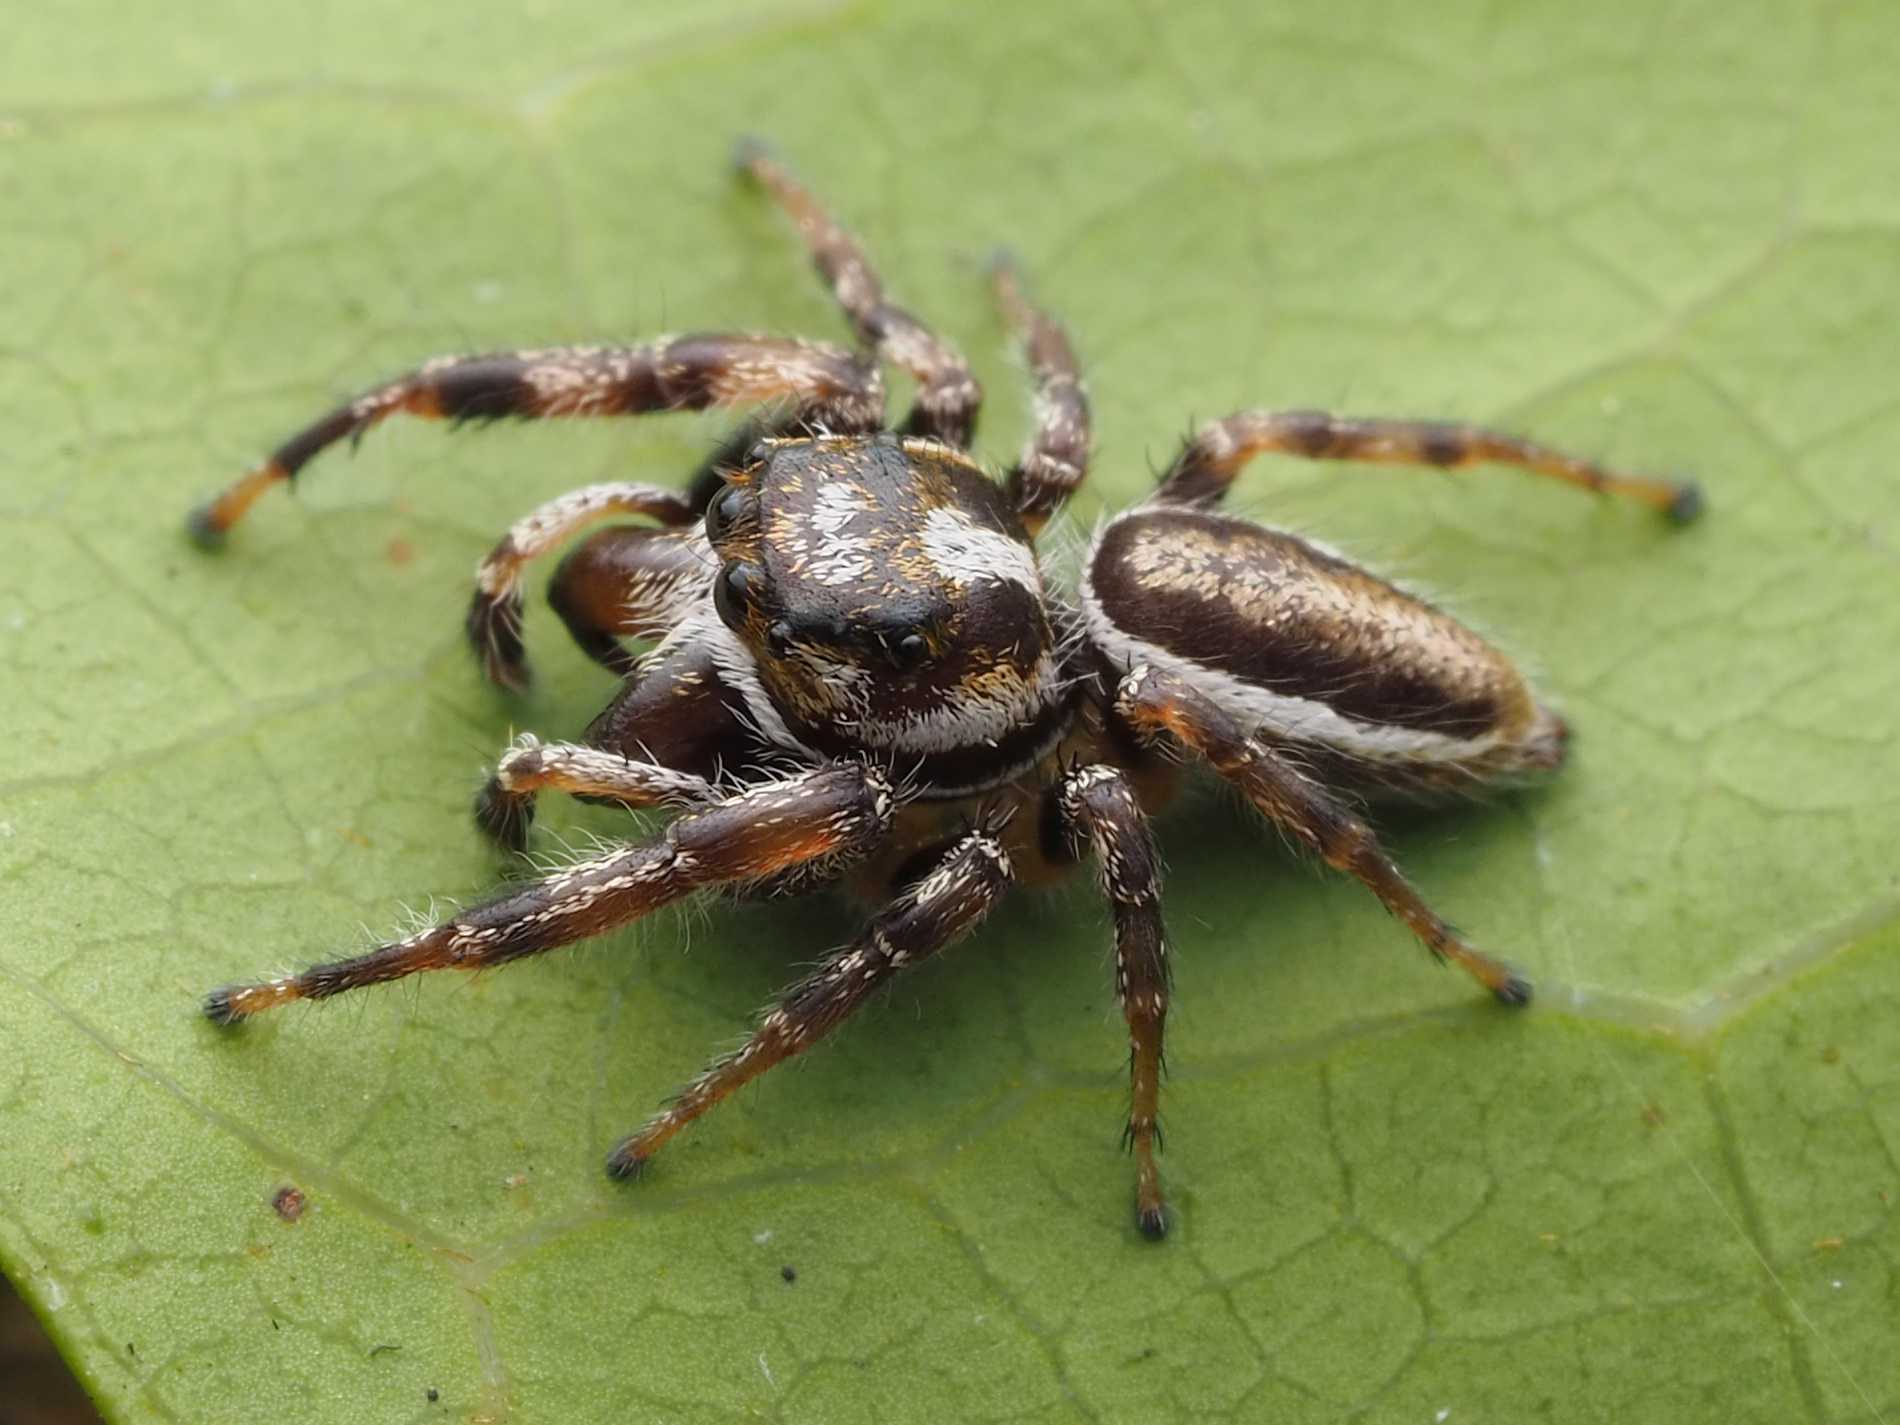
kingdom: Animalia
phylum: Arthropoda
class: Arachnida
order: Araneae
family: Salticidae
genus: Eris
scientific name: Eris flava
